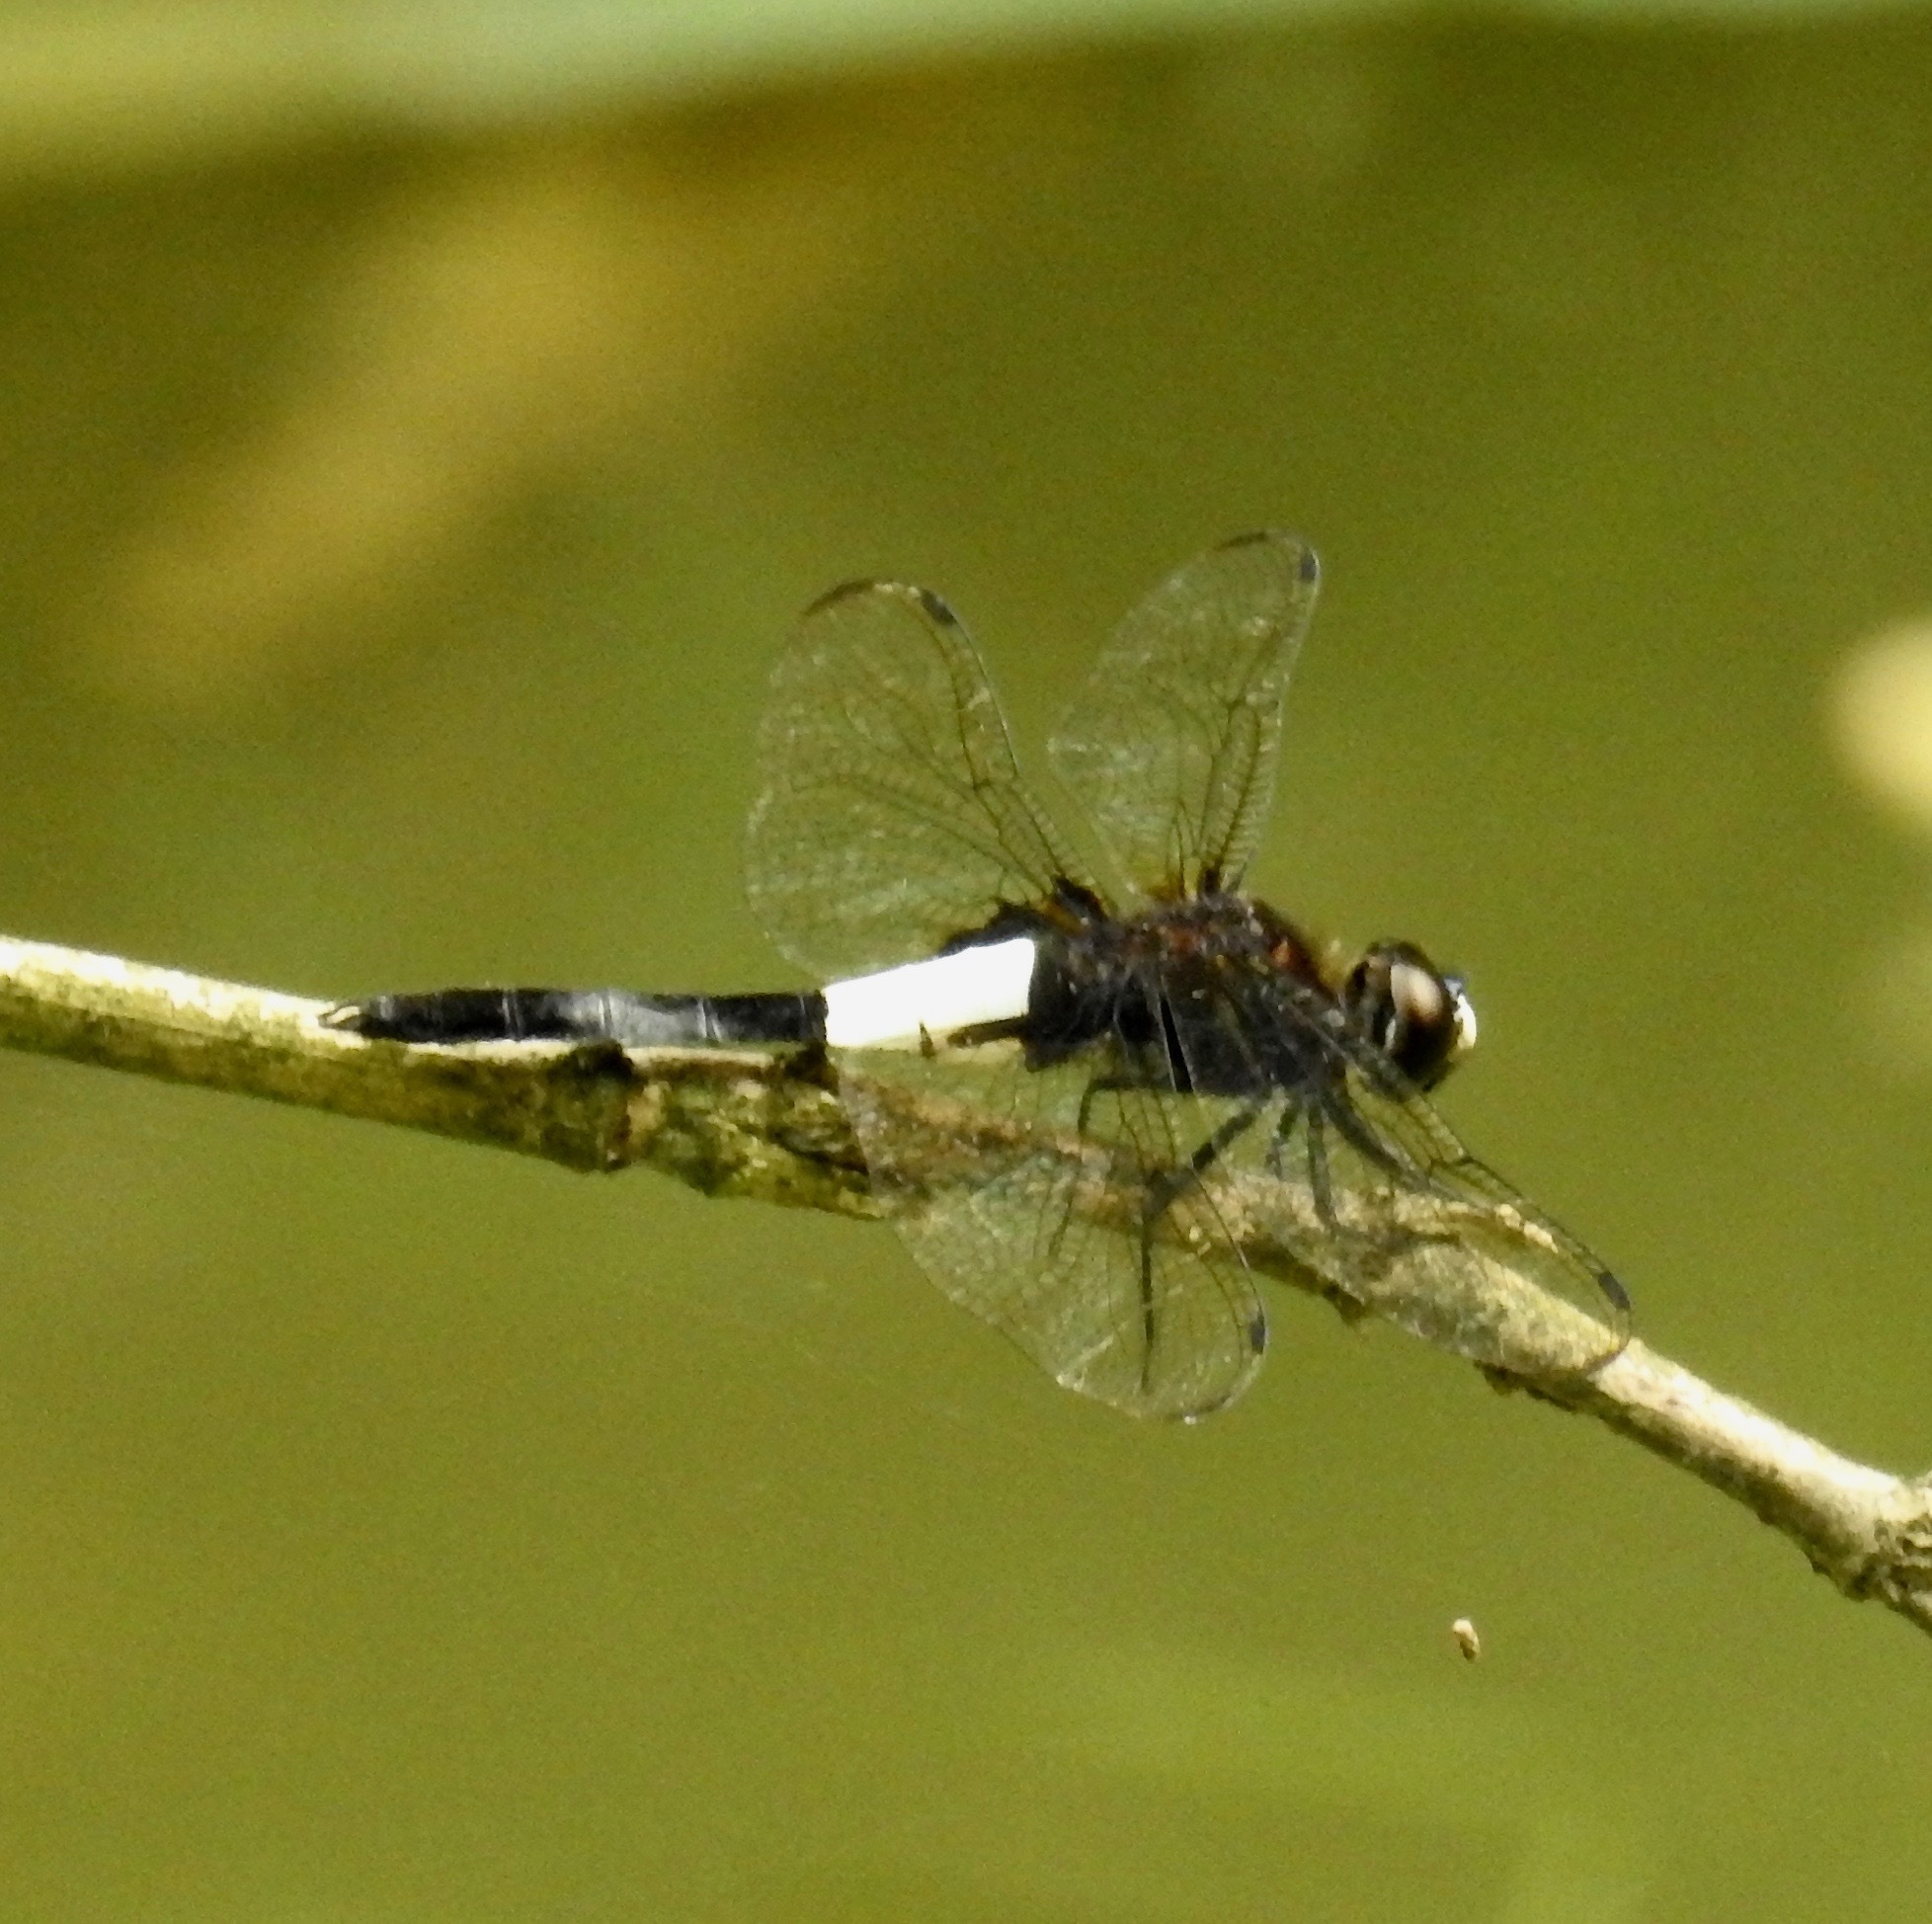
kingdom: Animalia
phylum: Arthropoda
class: Insecta
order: Odonata
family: Libellulidae
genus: Pseudothemis
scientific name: Pseudothemis zonata
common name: Pied skimmer
